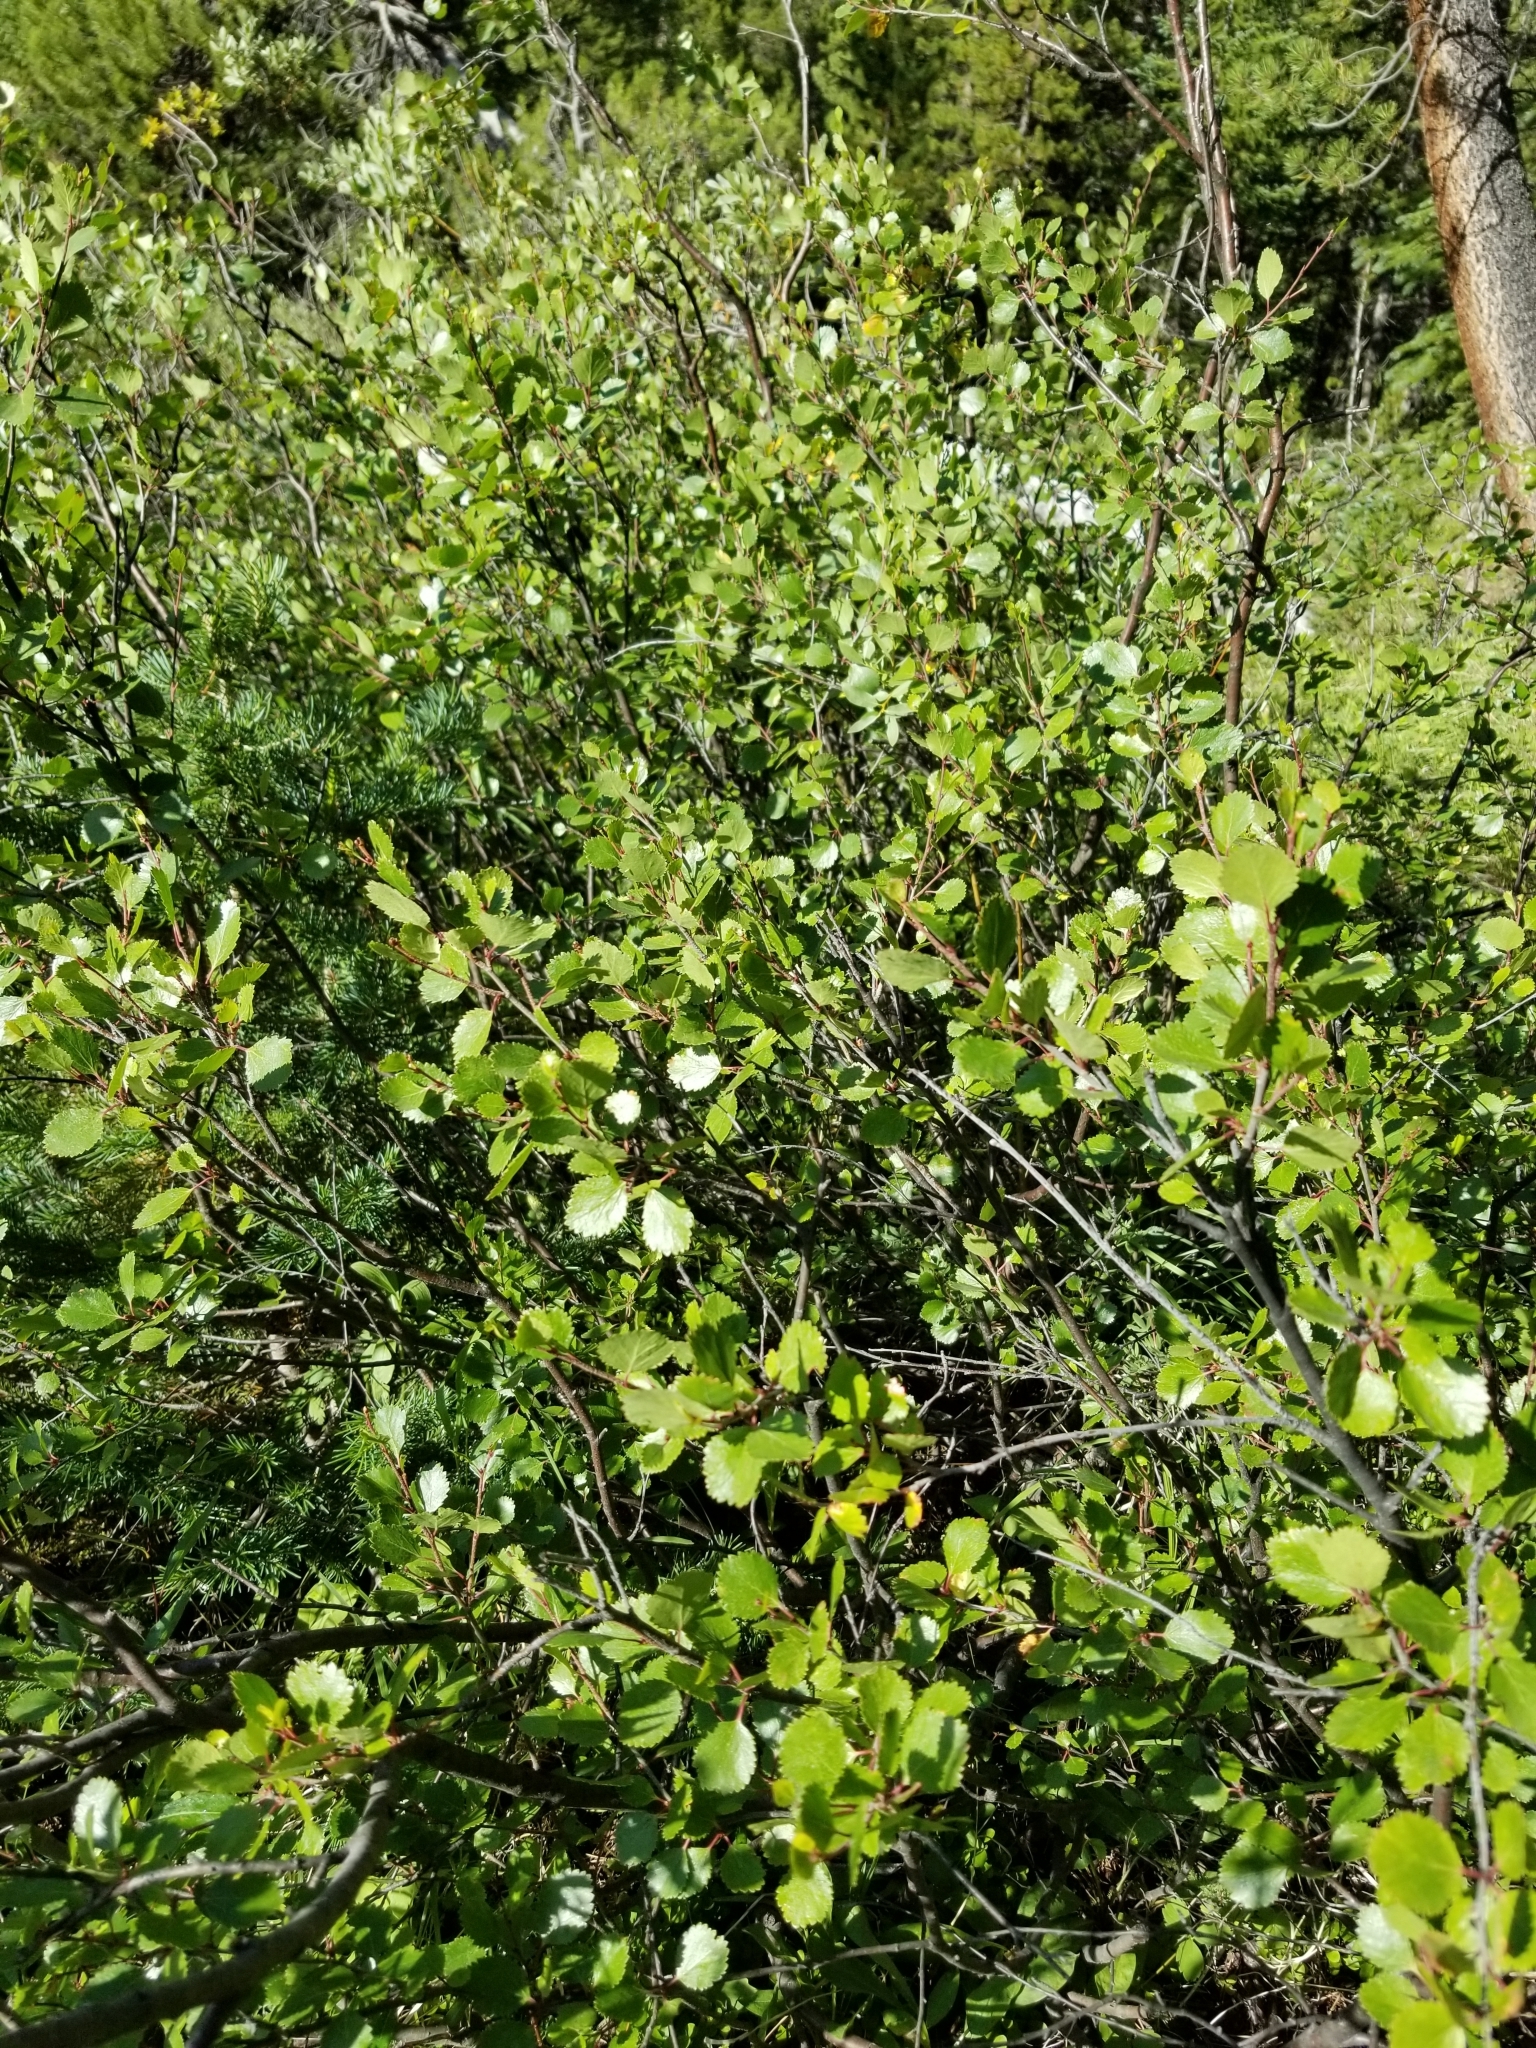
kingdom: Plantae
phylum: Tracheophyta
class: Magnoliopsida
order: Fagales
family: Betulaceae
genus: Betula
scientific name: Betula occidentalis
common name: River birch
